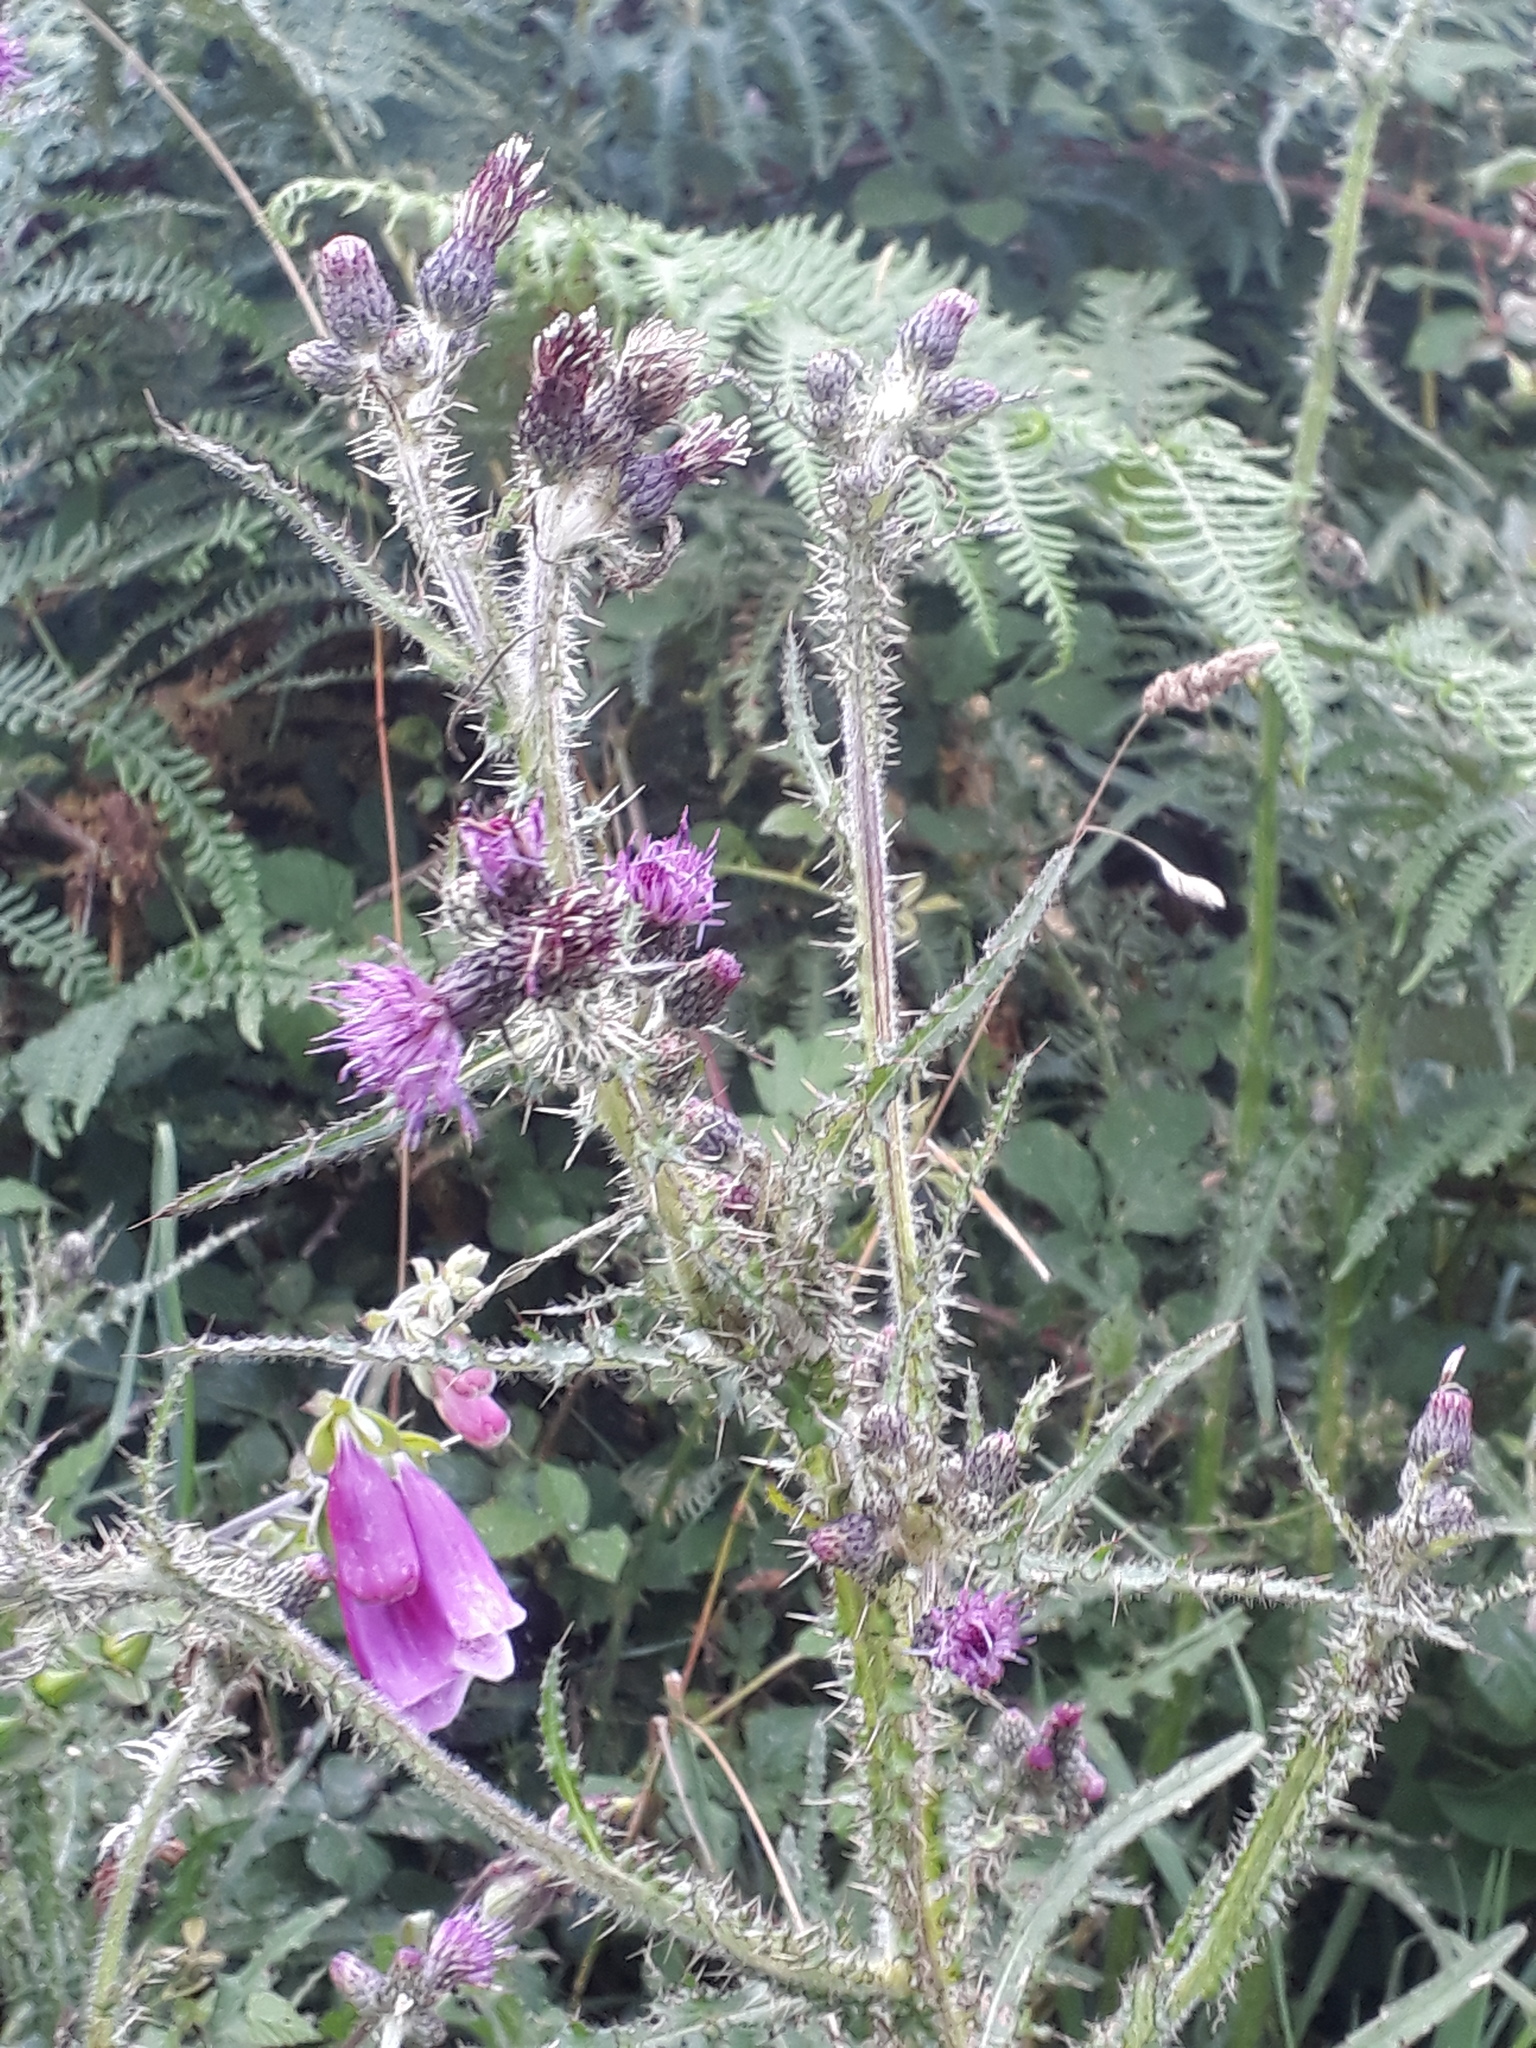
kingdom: Plantae
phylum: Tracheophyta
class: Magnoliopsida
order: Asterales
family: Asteraceae
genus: Cirsium
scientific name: Cirsium palustre
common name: Marsh thistle
